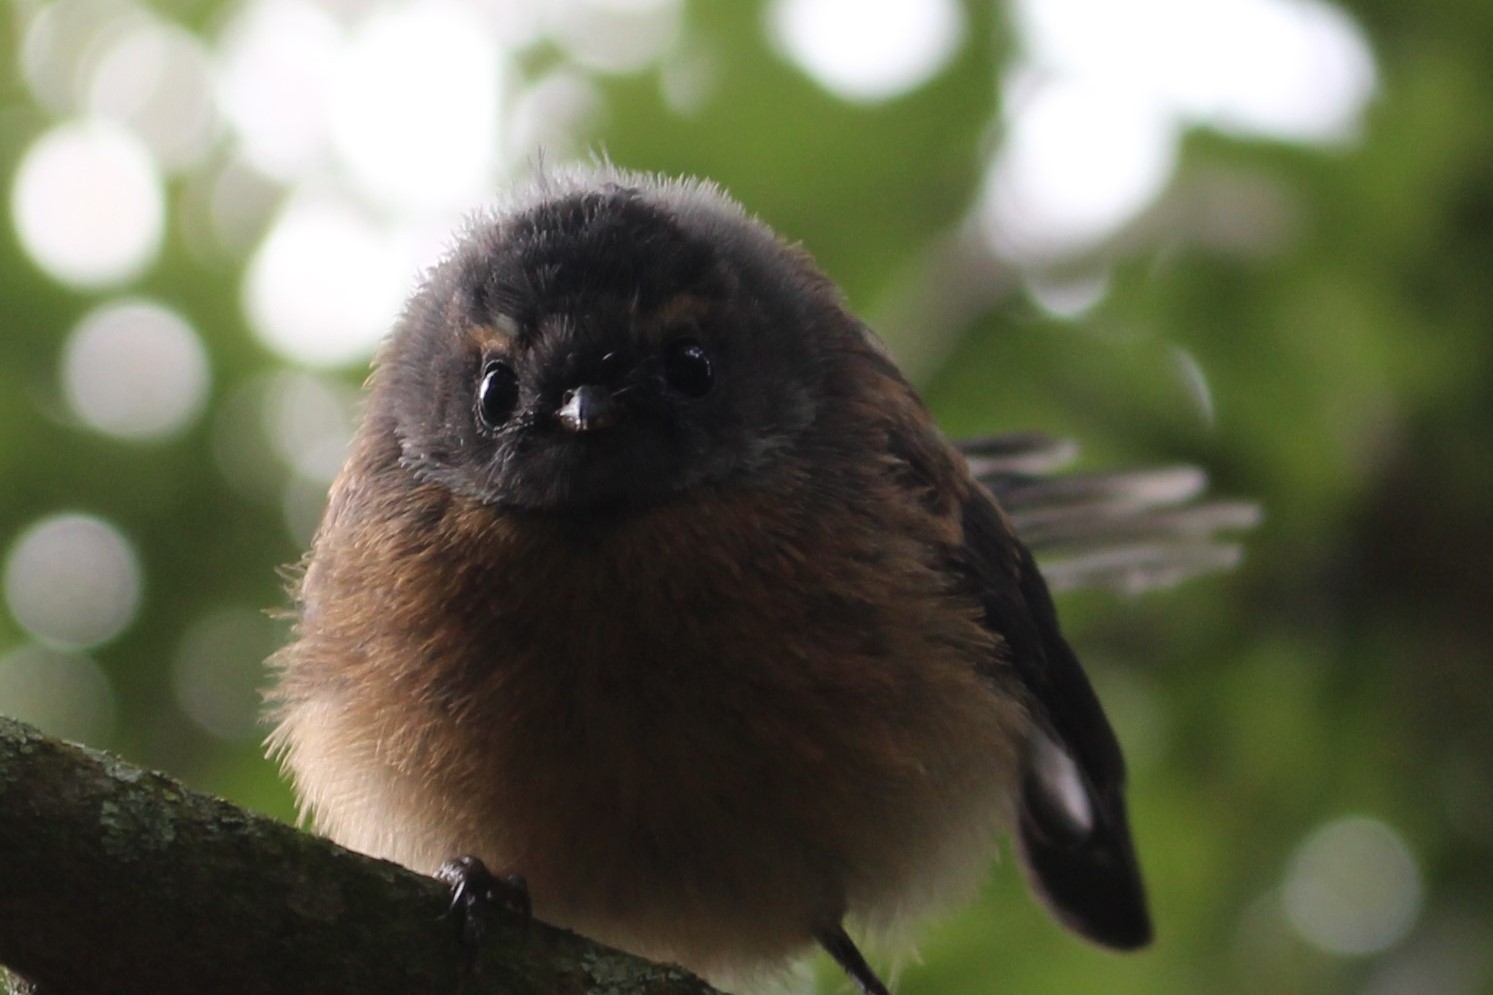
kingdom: Animalia
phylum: Chordata
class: Aves
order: Passeriformes
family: Rhipiduridae
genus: Rhipidura
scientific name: Rhipidura fuliginosa
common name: New zealand fantail
